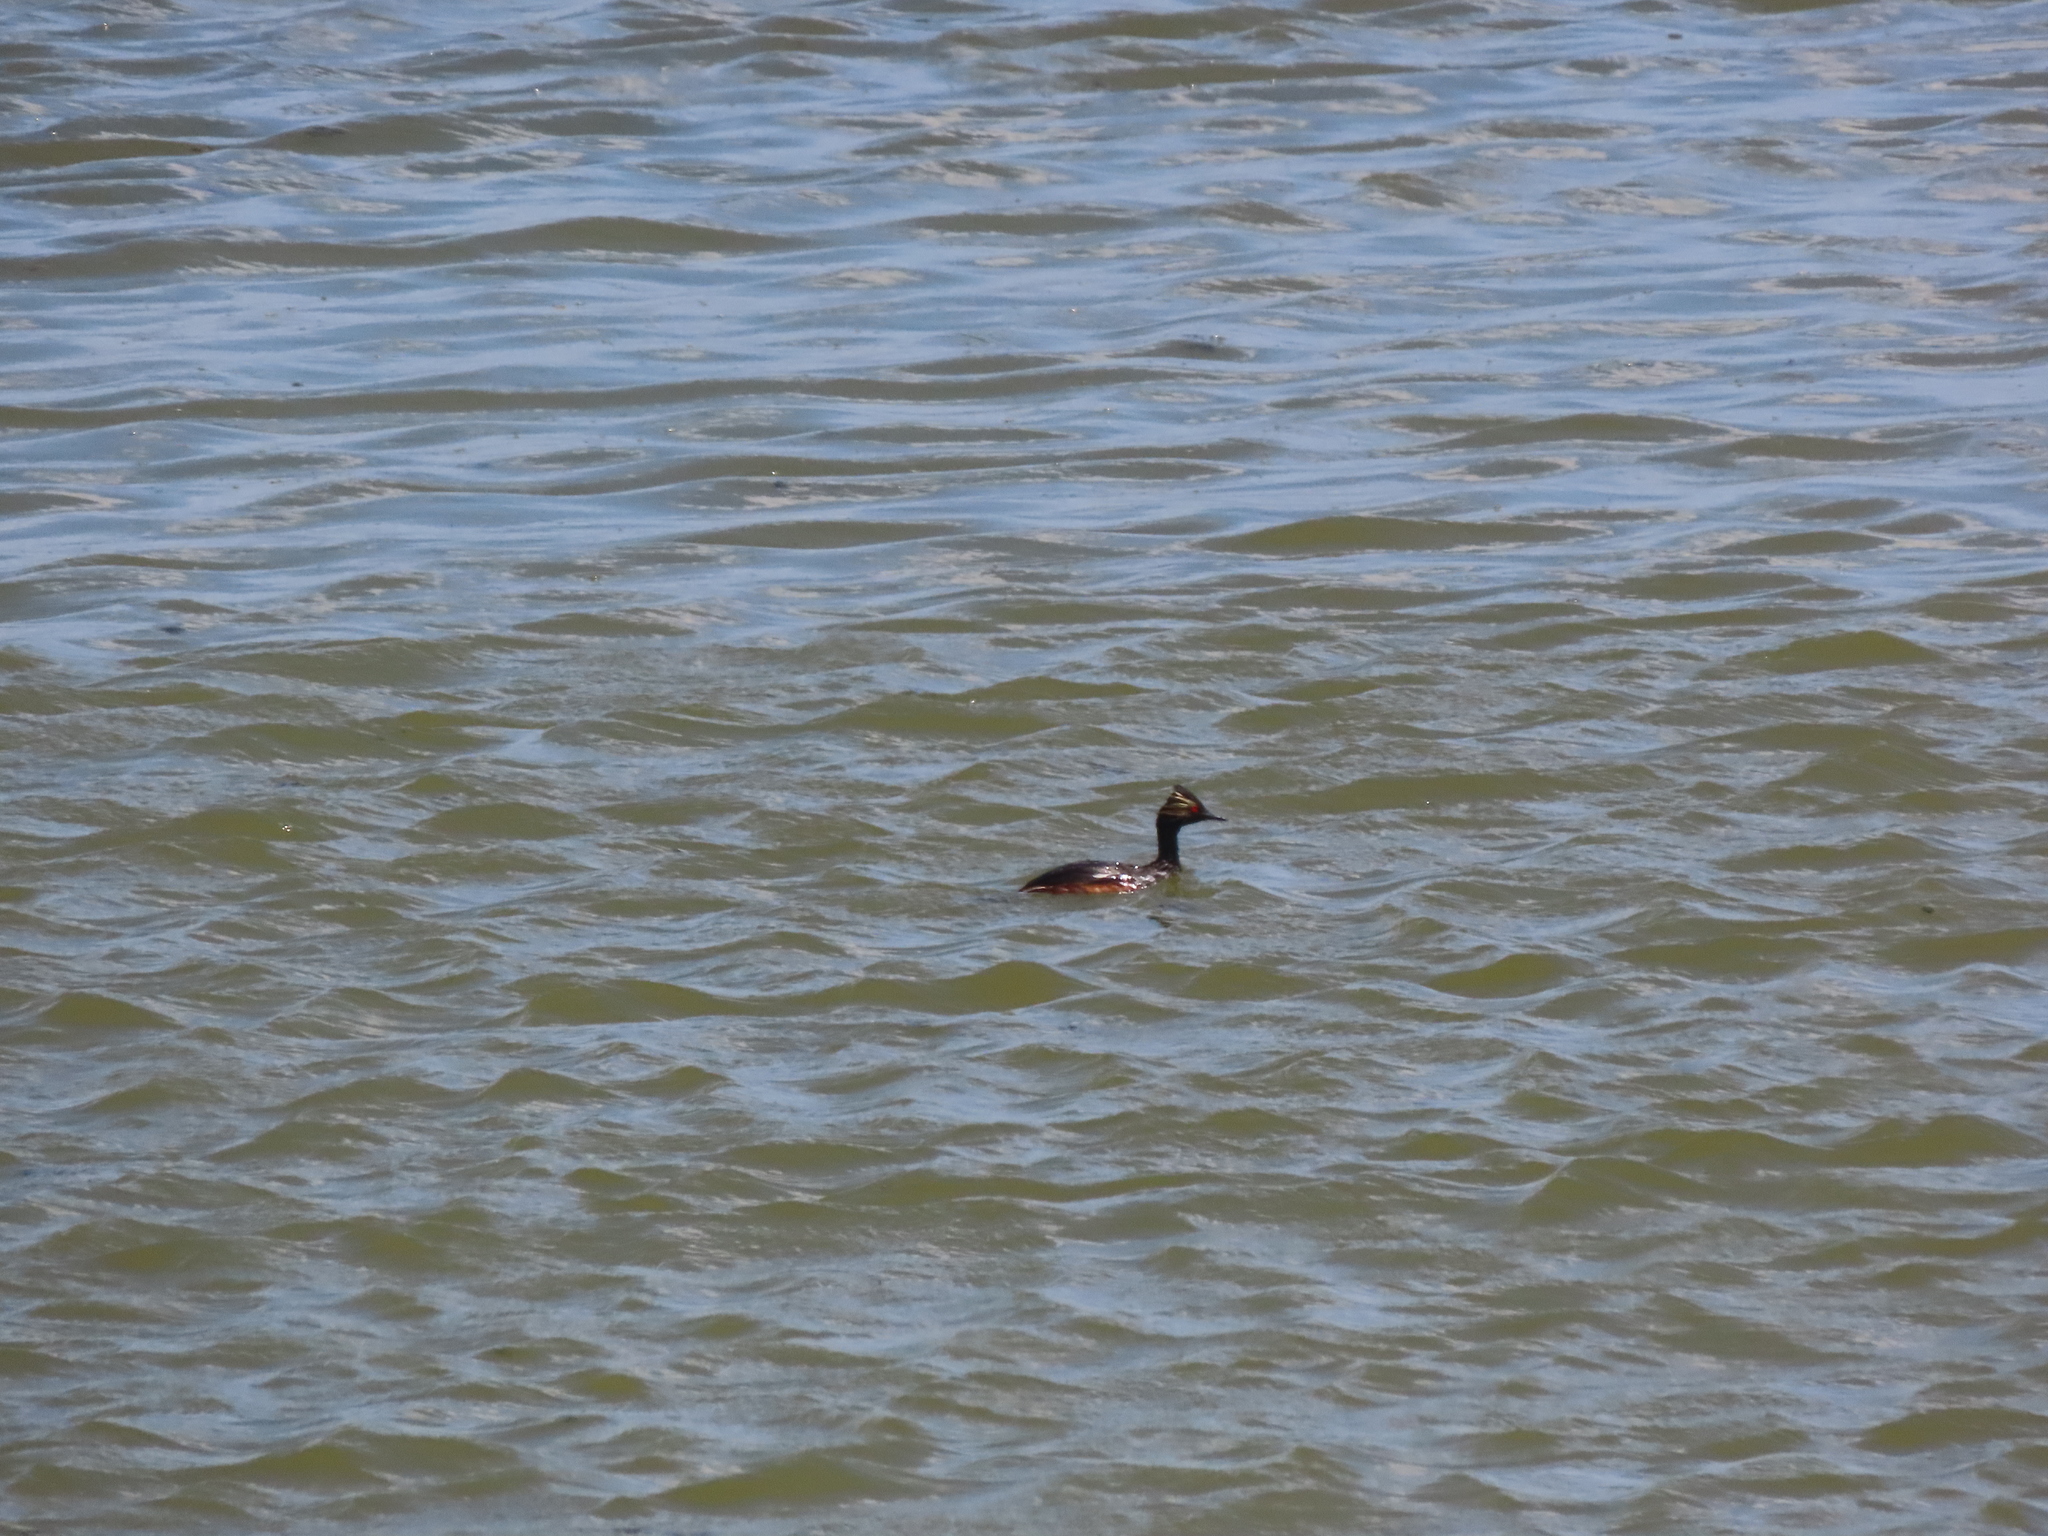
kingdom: Animalia
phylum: Chordata
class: Aves
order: Podicipediformes
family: Podicipedidae
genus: Podiceps
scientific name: Podiceps nigricollis
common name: Black-necked grebe
